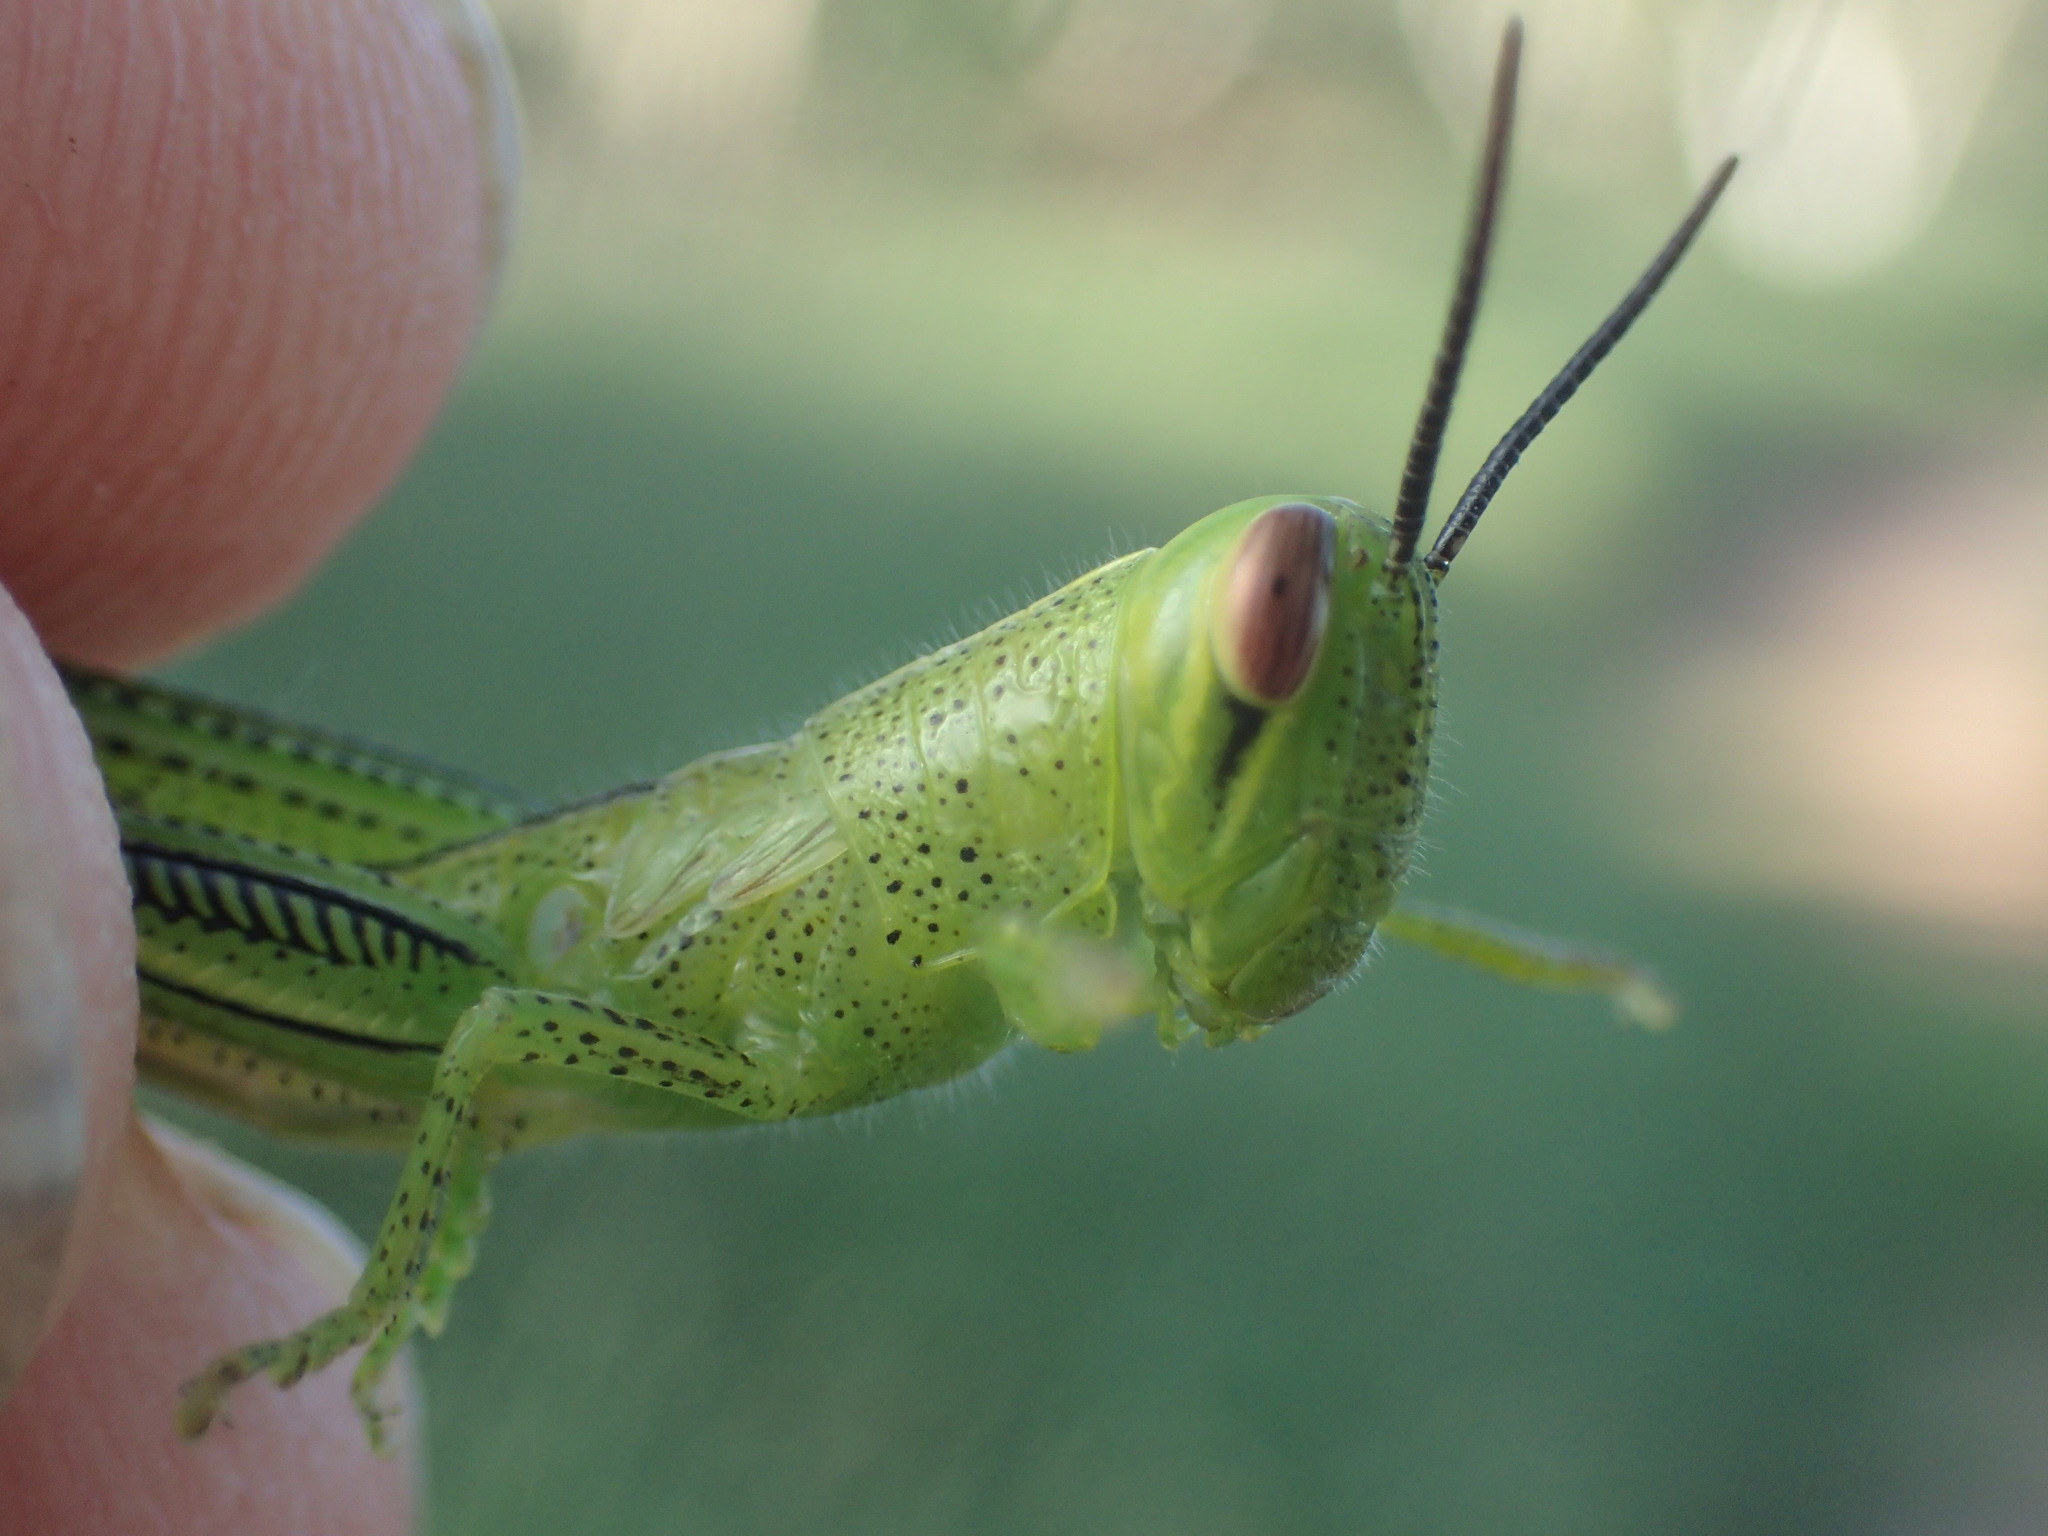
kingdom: Animalia
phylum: Arthropoda
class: Insecta
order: Orthoptera
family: Acrididae
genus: Austracris
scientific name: Austracris guttulosa
